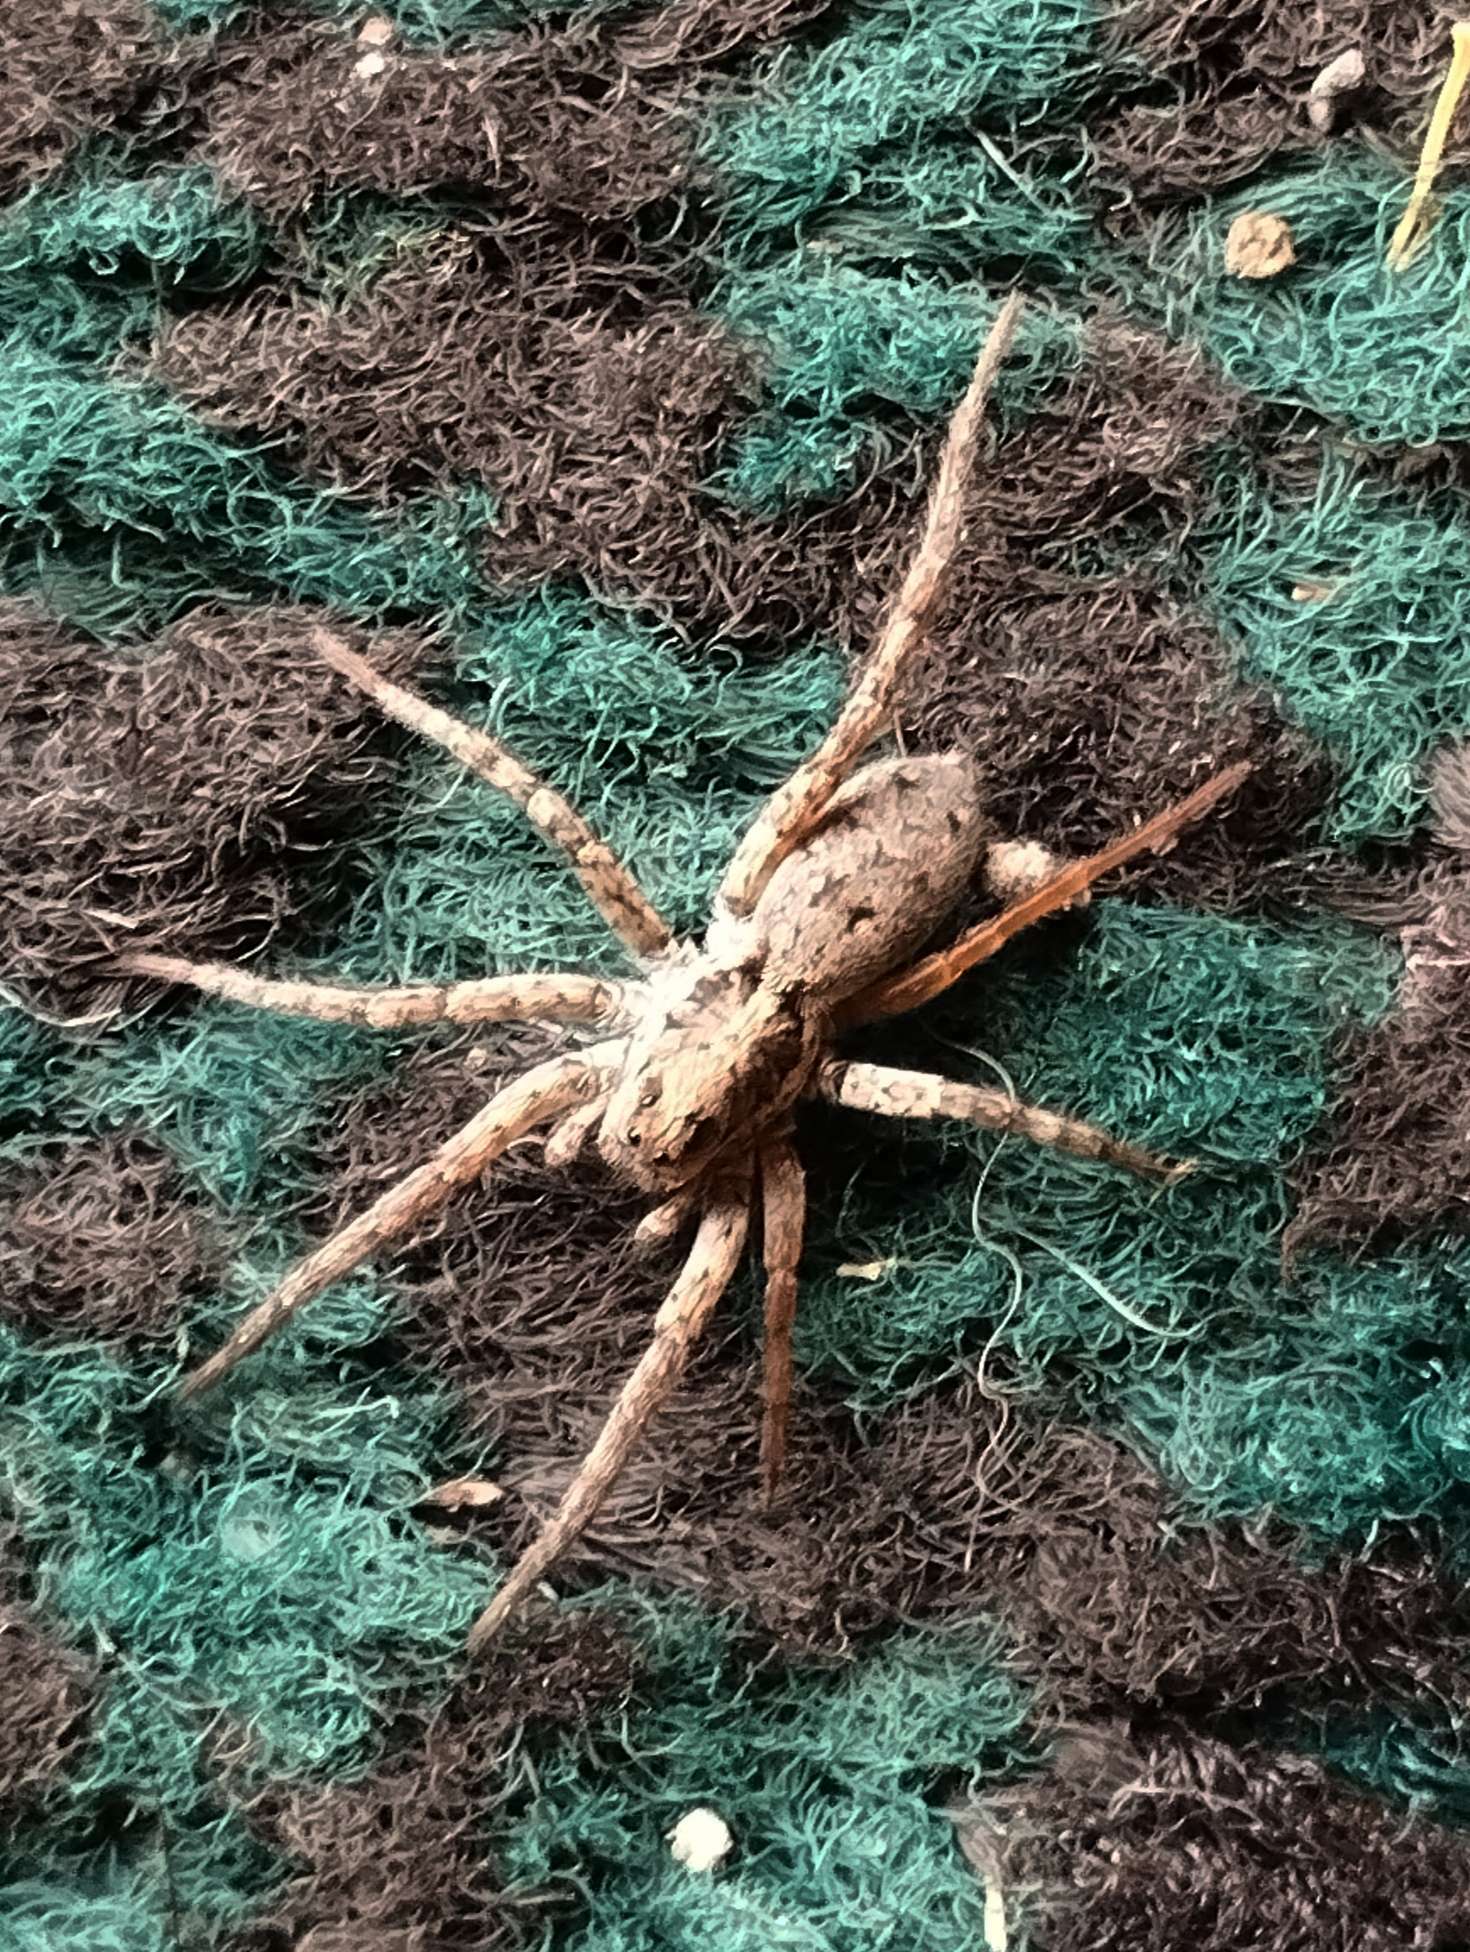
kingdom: Animalia
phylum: Arthropoda
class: Arachnida
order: Araneae
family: Lycosidae
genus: Hogna
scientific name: Hogna crispipes
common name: Wolf spider
